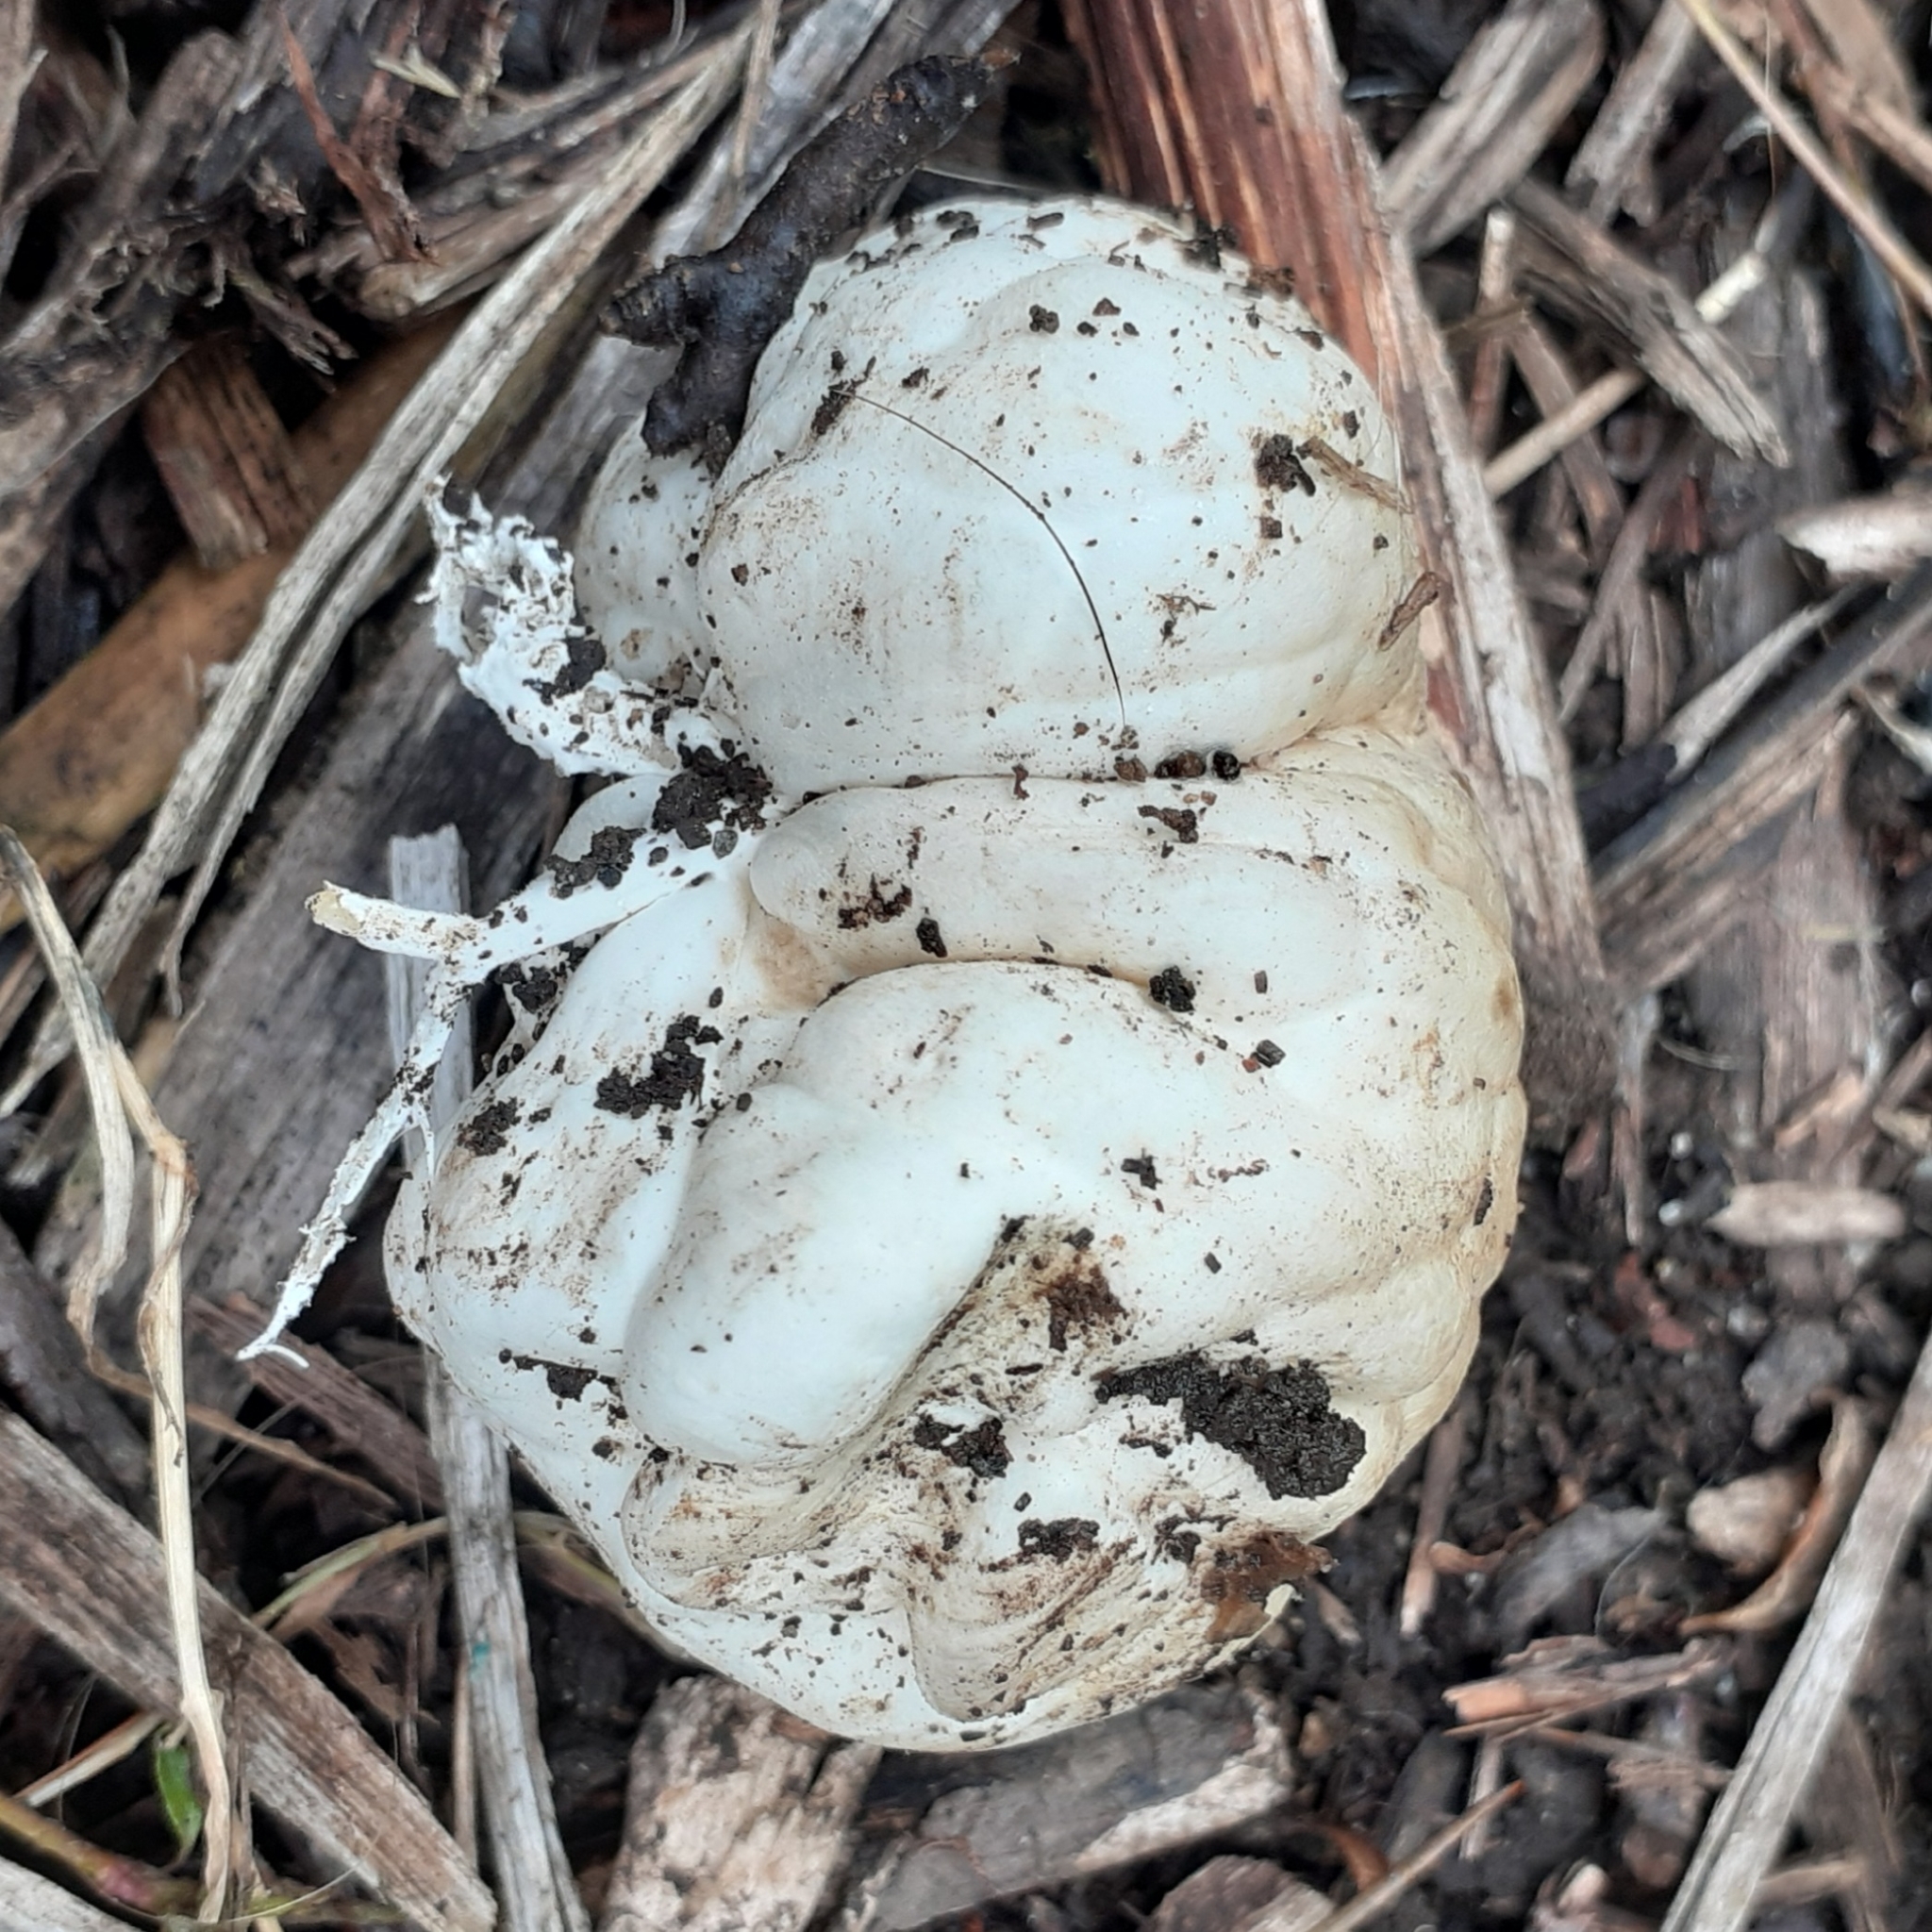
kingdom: Fungi
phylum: Basidiomycota
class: Agaricomycetes
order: Phallales
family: Phallaceae
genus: Clathrus
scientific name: Clathrus ruber
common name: Red cage
